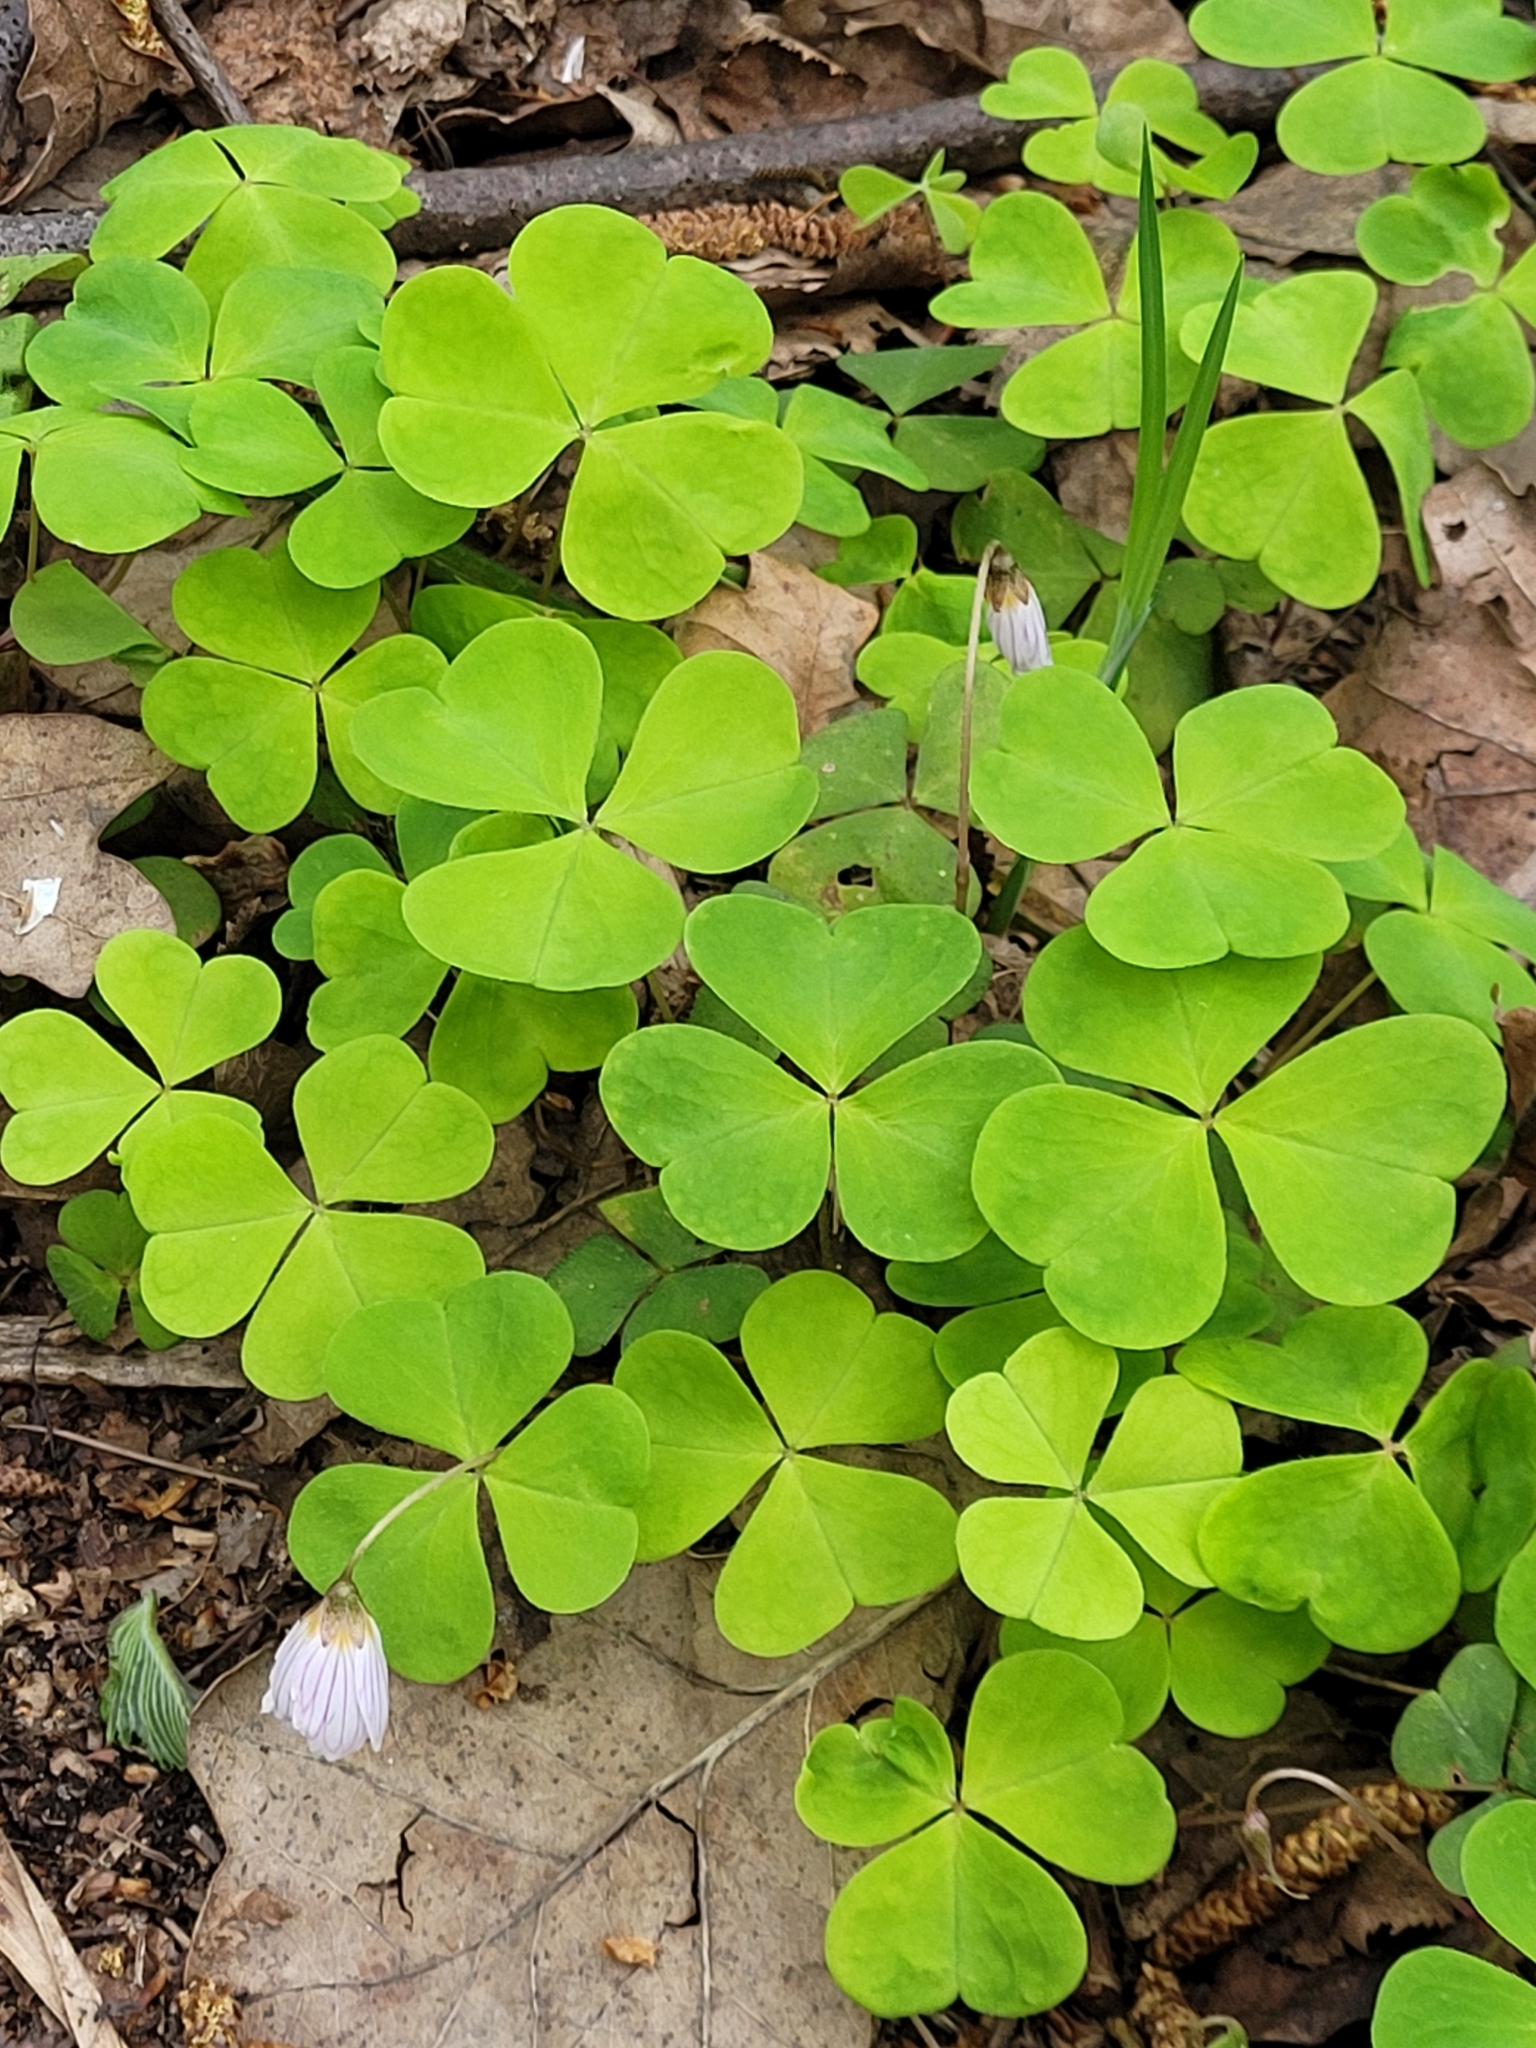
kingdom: Plantae
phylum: Tracheophyta
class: Magnoliopsida
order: Oxalidales
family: Oxalidaceae
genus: Oxalis
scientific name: Oxalis acetosella
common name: Wood-sorrel
